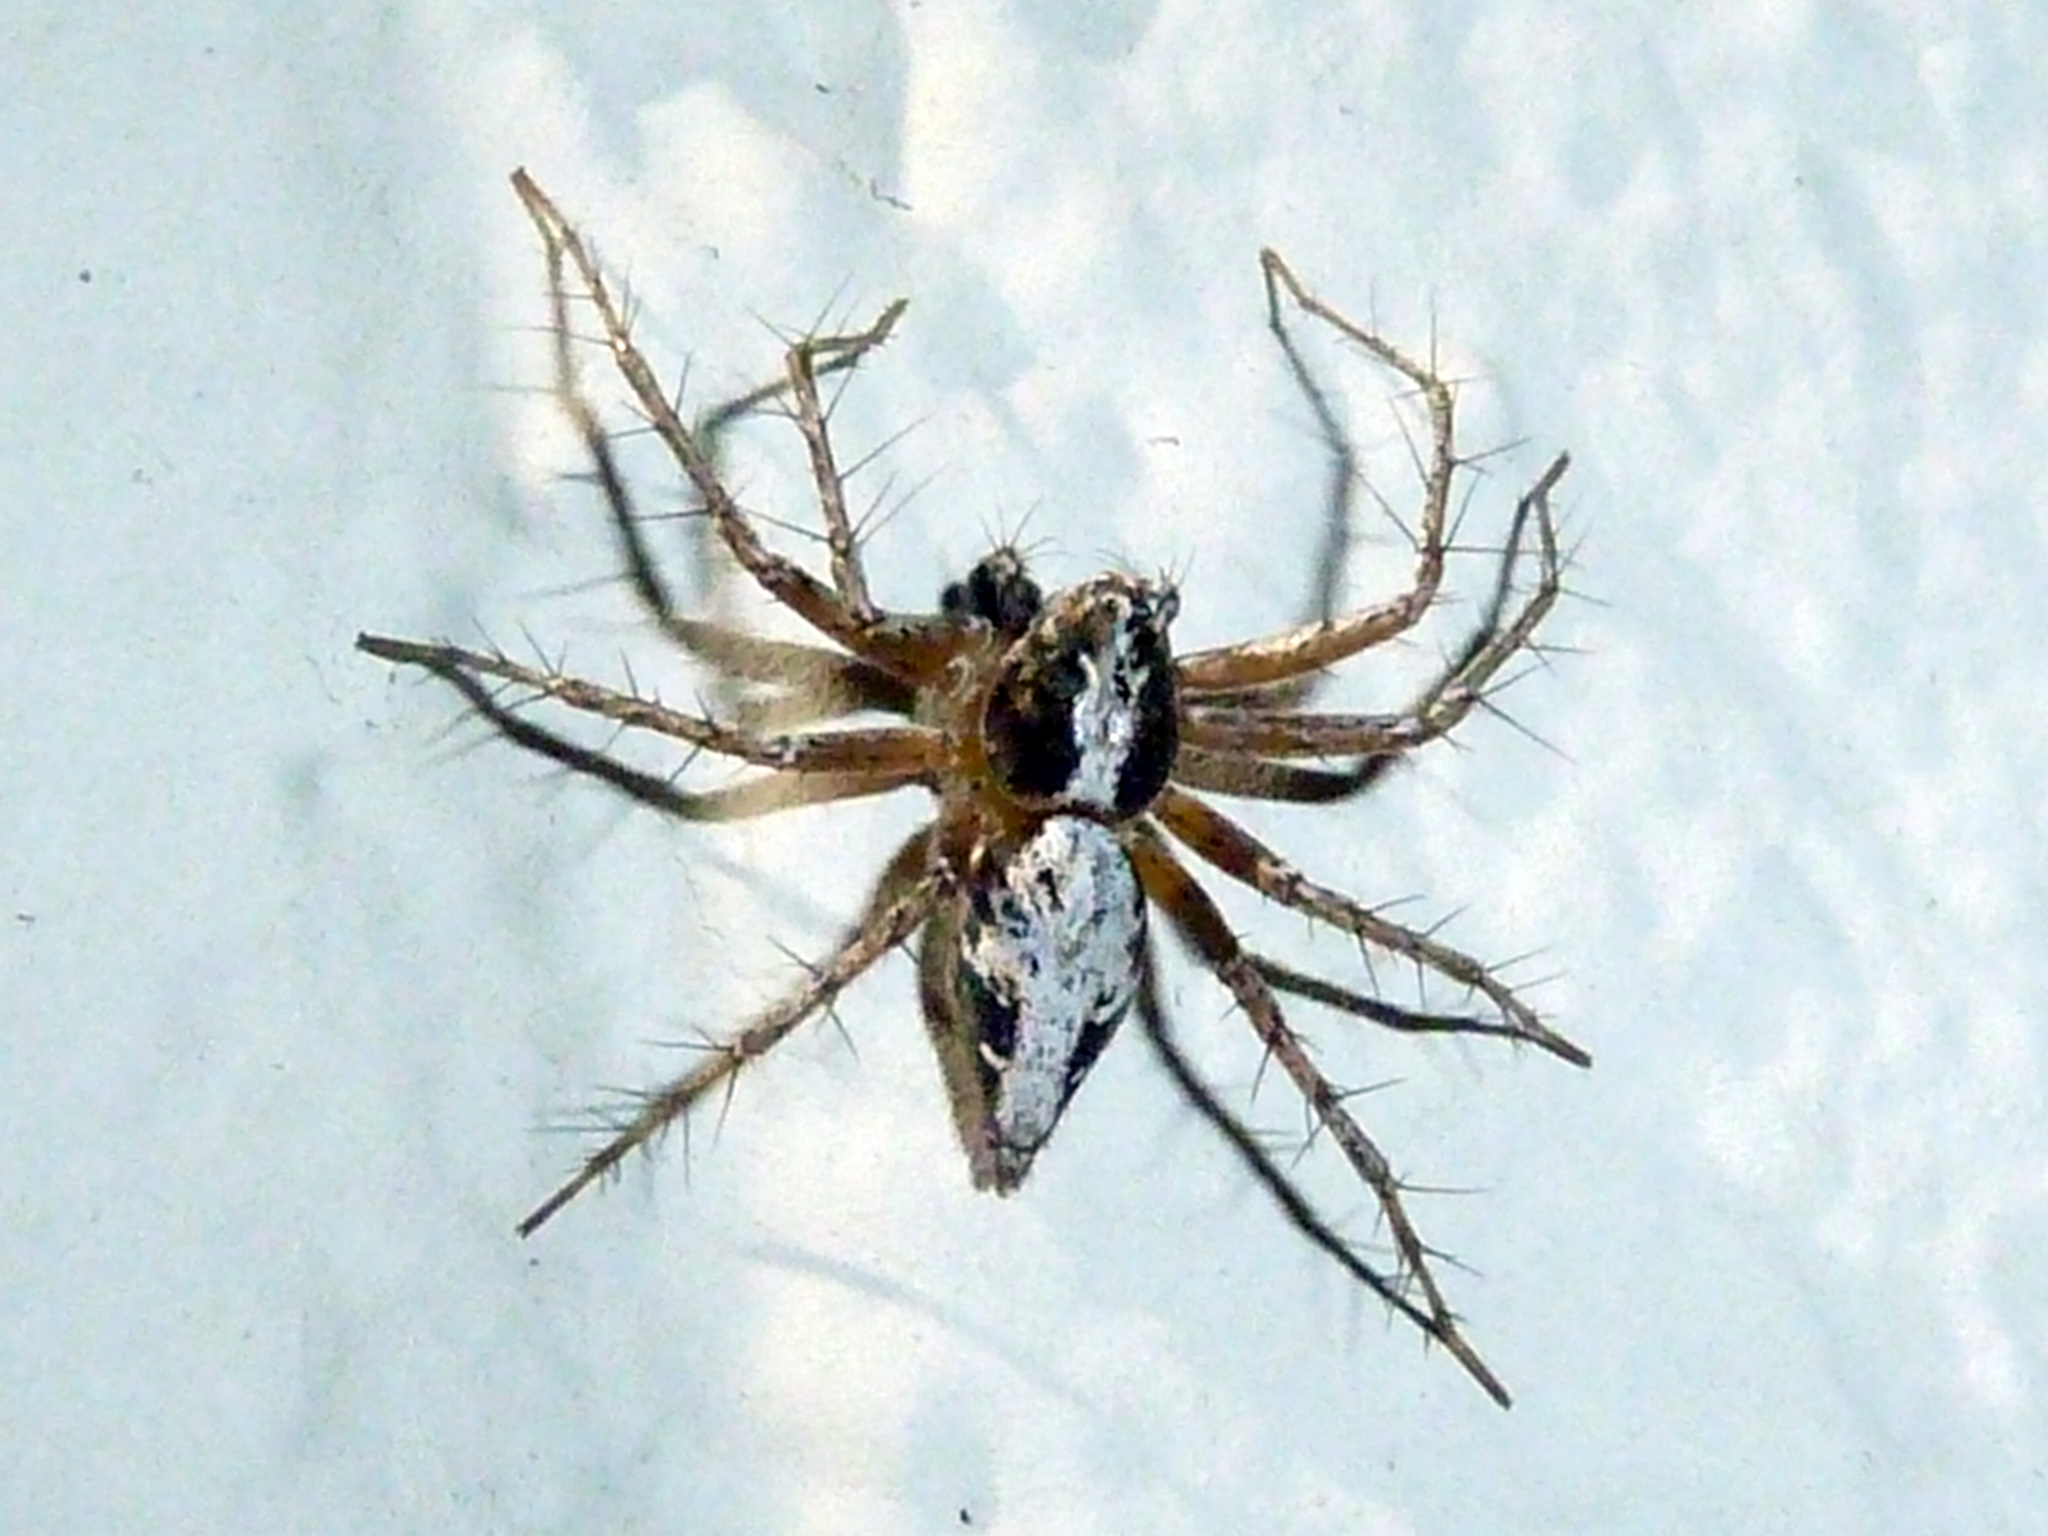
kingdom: Animalia
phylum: Arthropoda
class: Arachnida
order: Araneae
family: Oxyopidae
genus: Oxyopes
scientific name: Oxyopes scalaris
